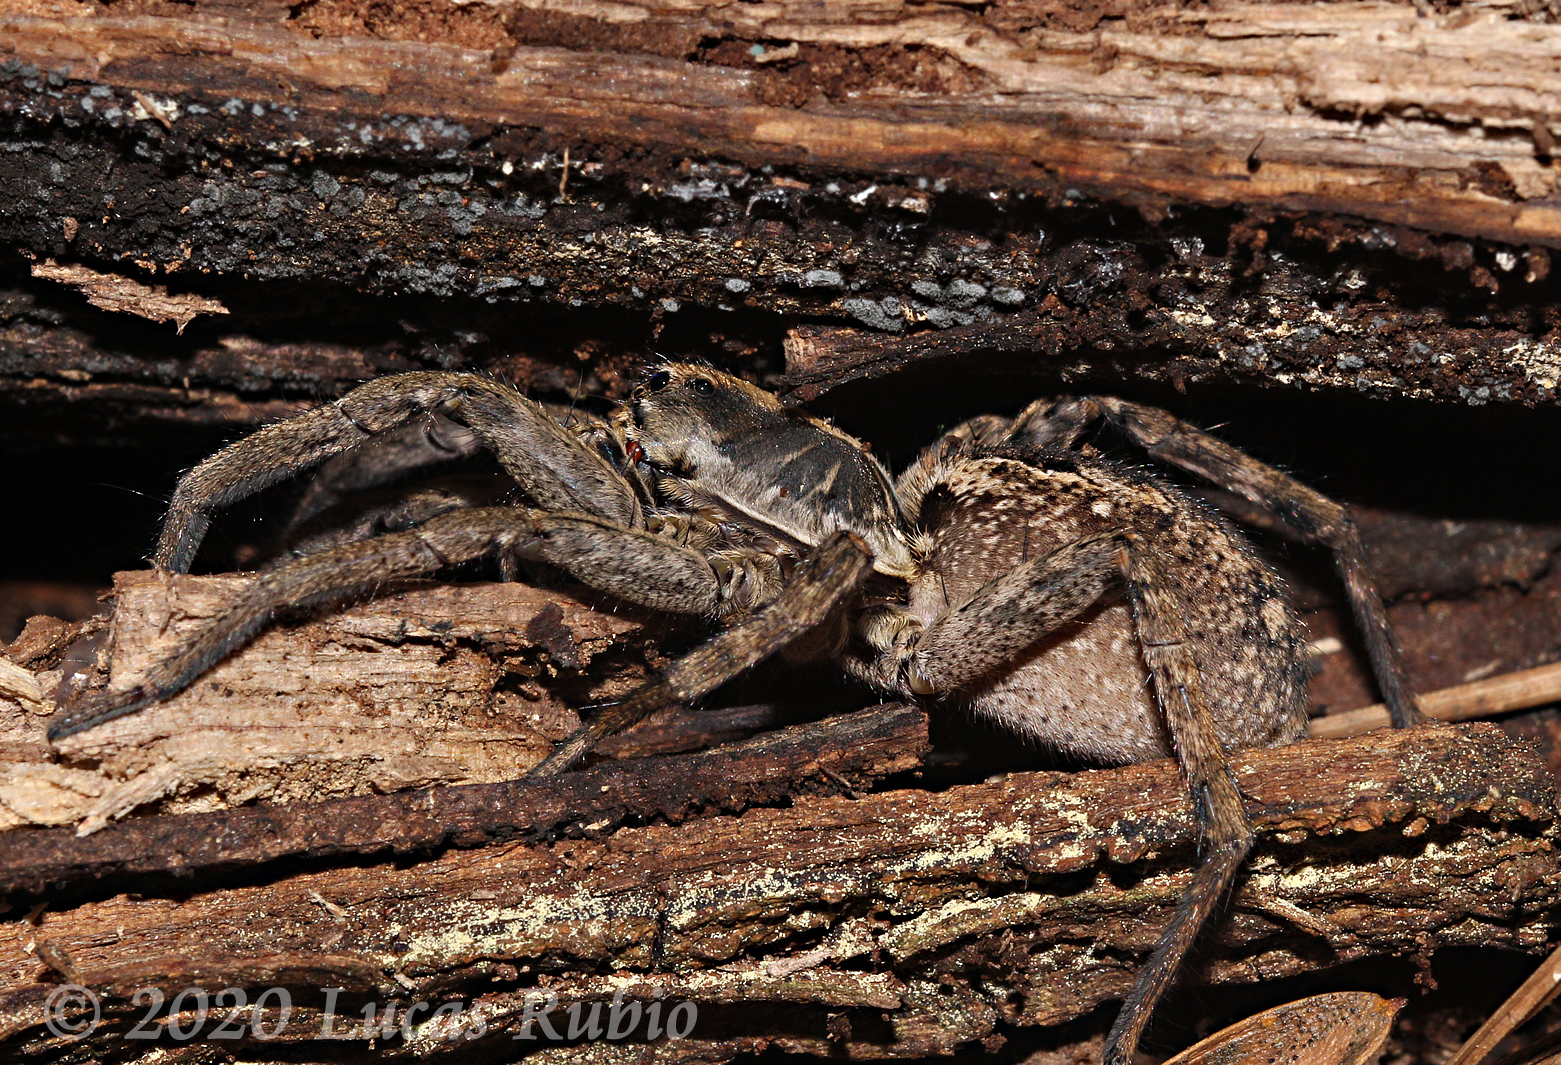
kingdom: Animalia
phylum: Arthropoda
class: Arachnida
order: Araneae
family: Lycosidae
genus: Schizocosa
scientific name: Schizocosa malitiosa
